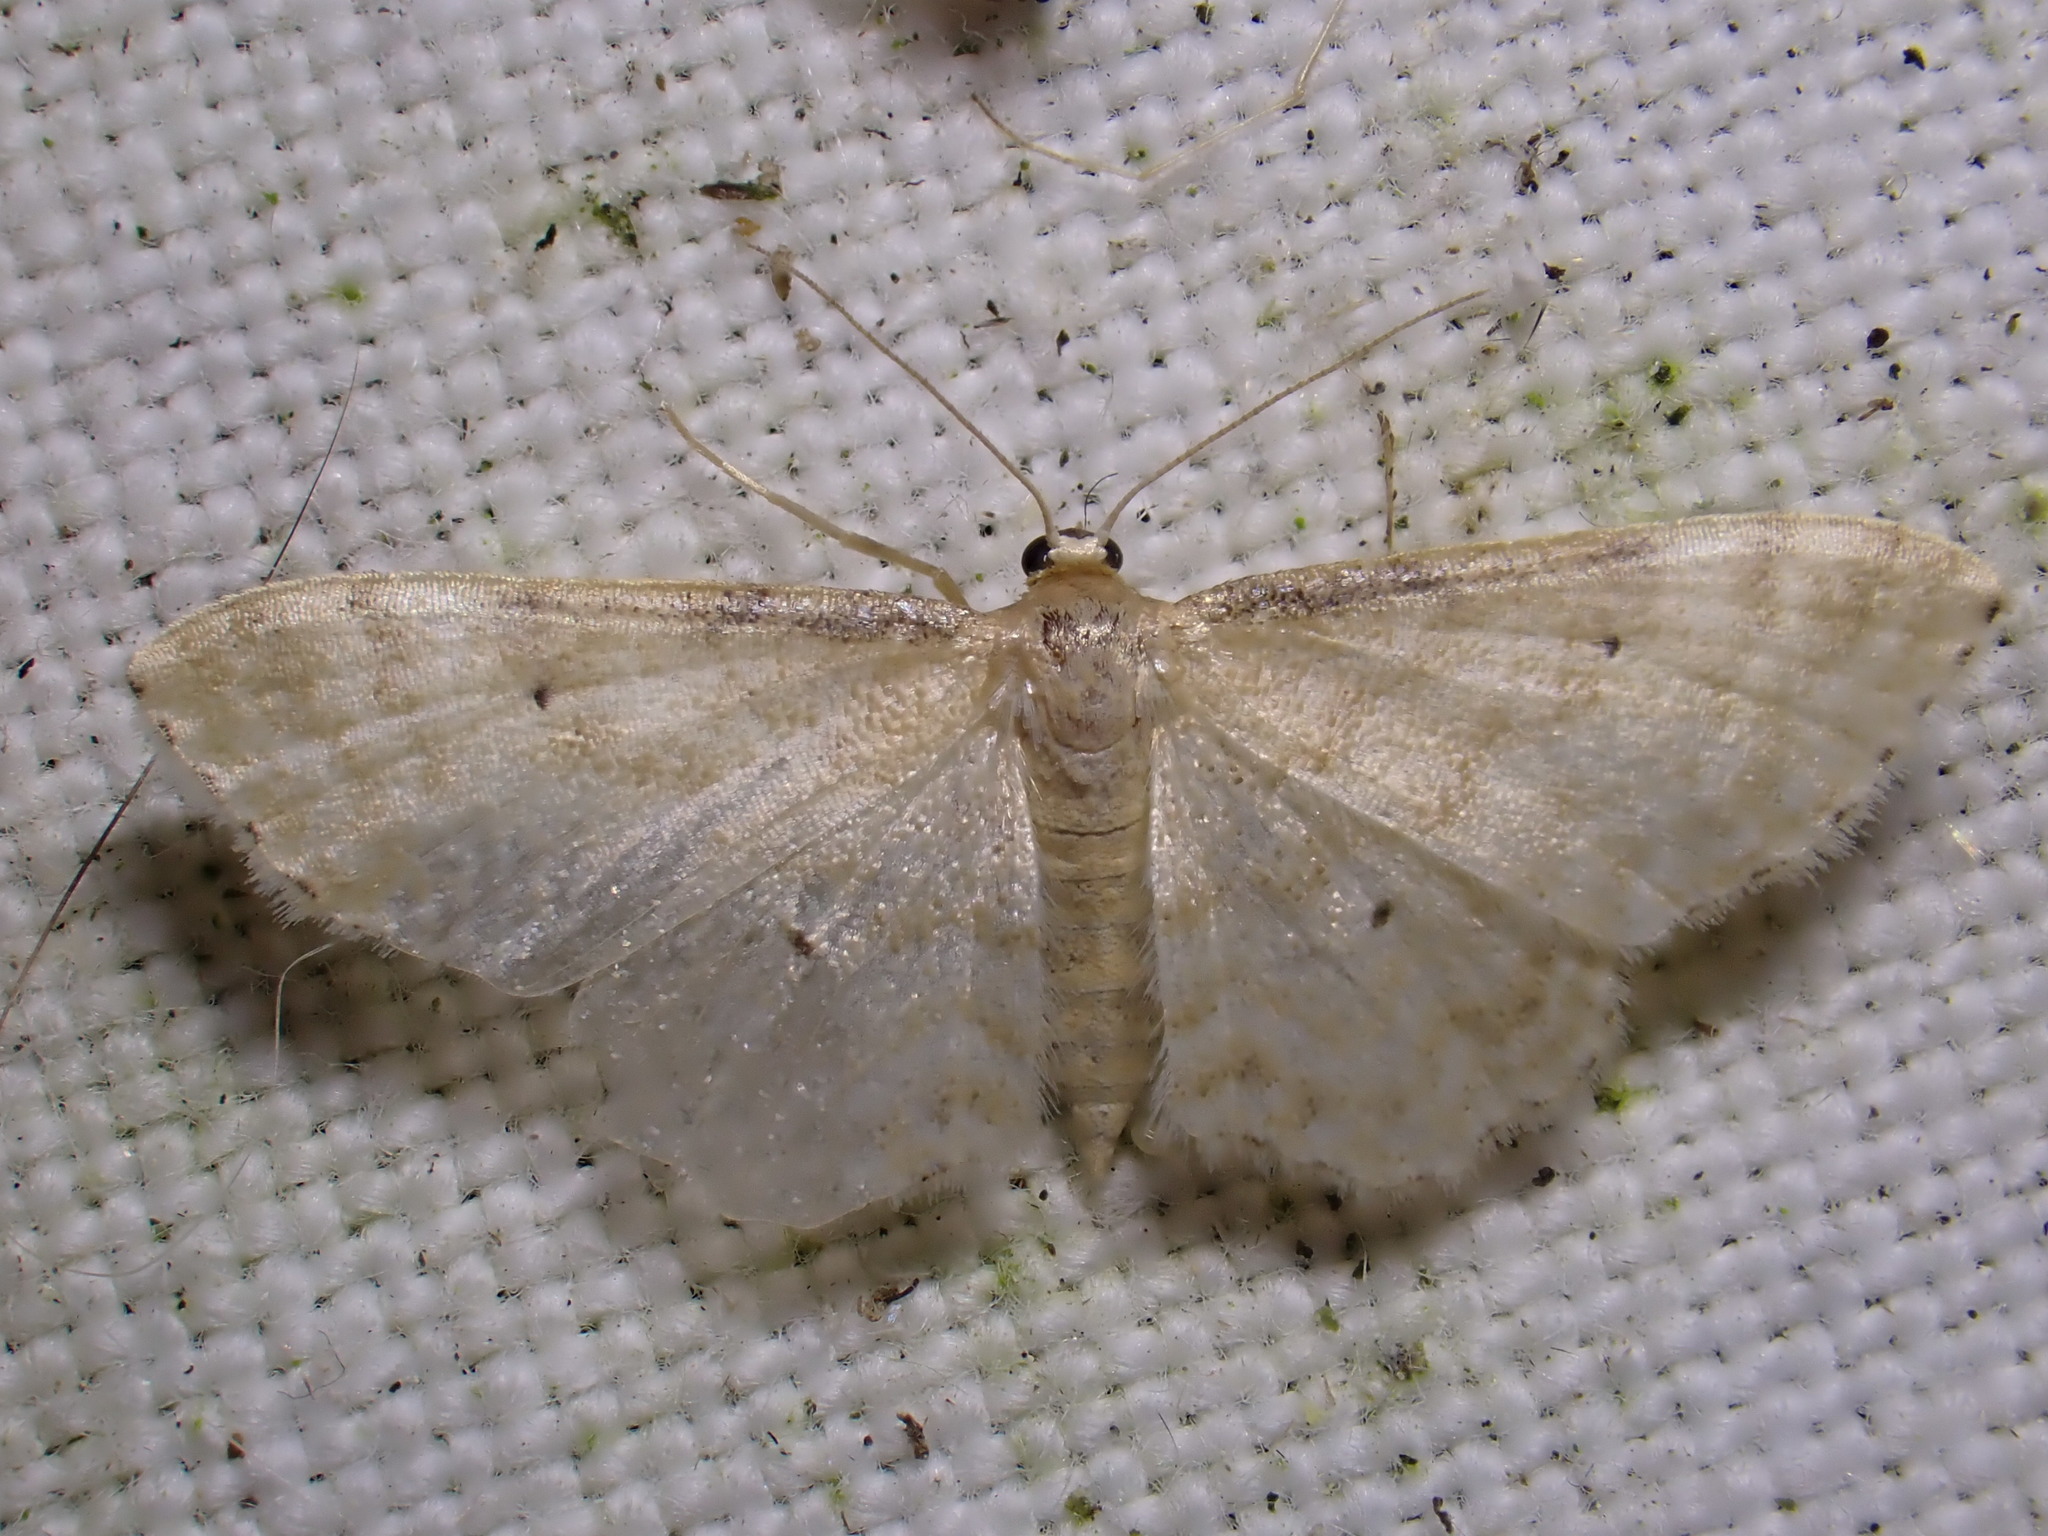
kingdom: Animalia
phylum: Arthropoda
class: Insecta
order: Lepidoptera
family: Geometridae
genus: Idaea
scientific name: Idaea fuscovenosa
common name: Dwarf cream wave
